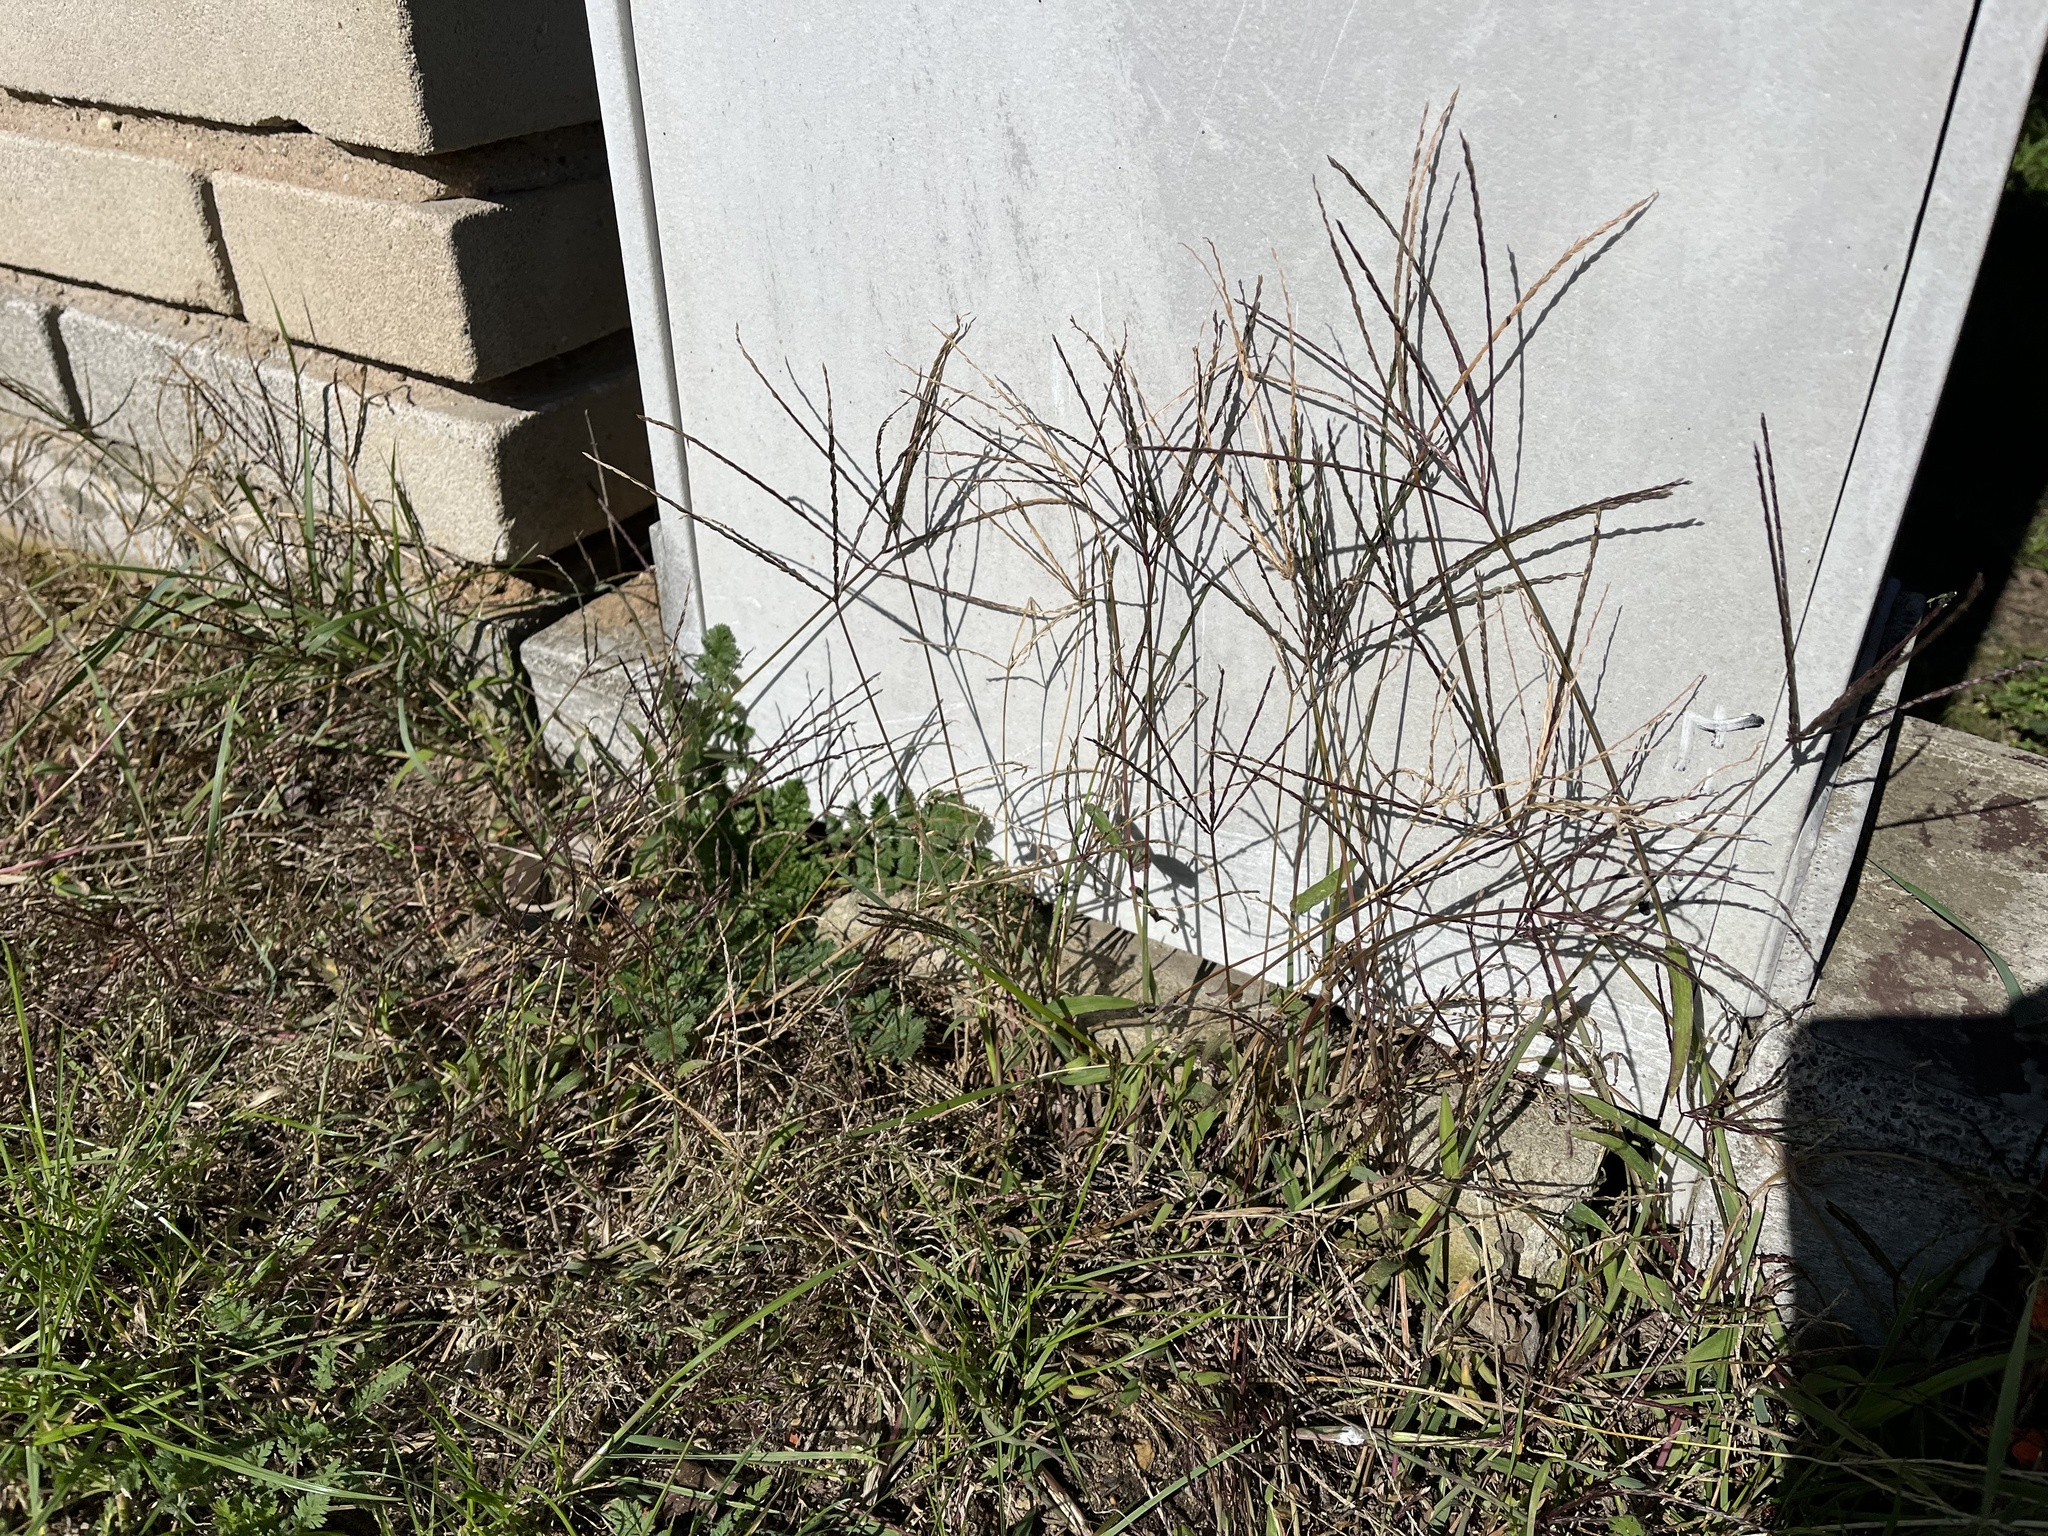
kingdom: Plantae
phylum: Tracheophyta
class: Liliopsida
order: Poales
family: Poaceae
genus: Digitaria
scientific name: Digitaria sanguinalis
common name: Hairy crabgrass
